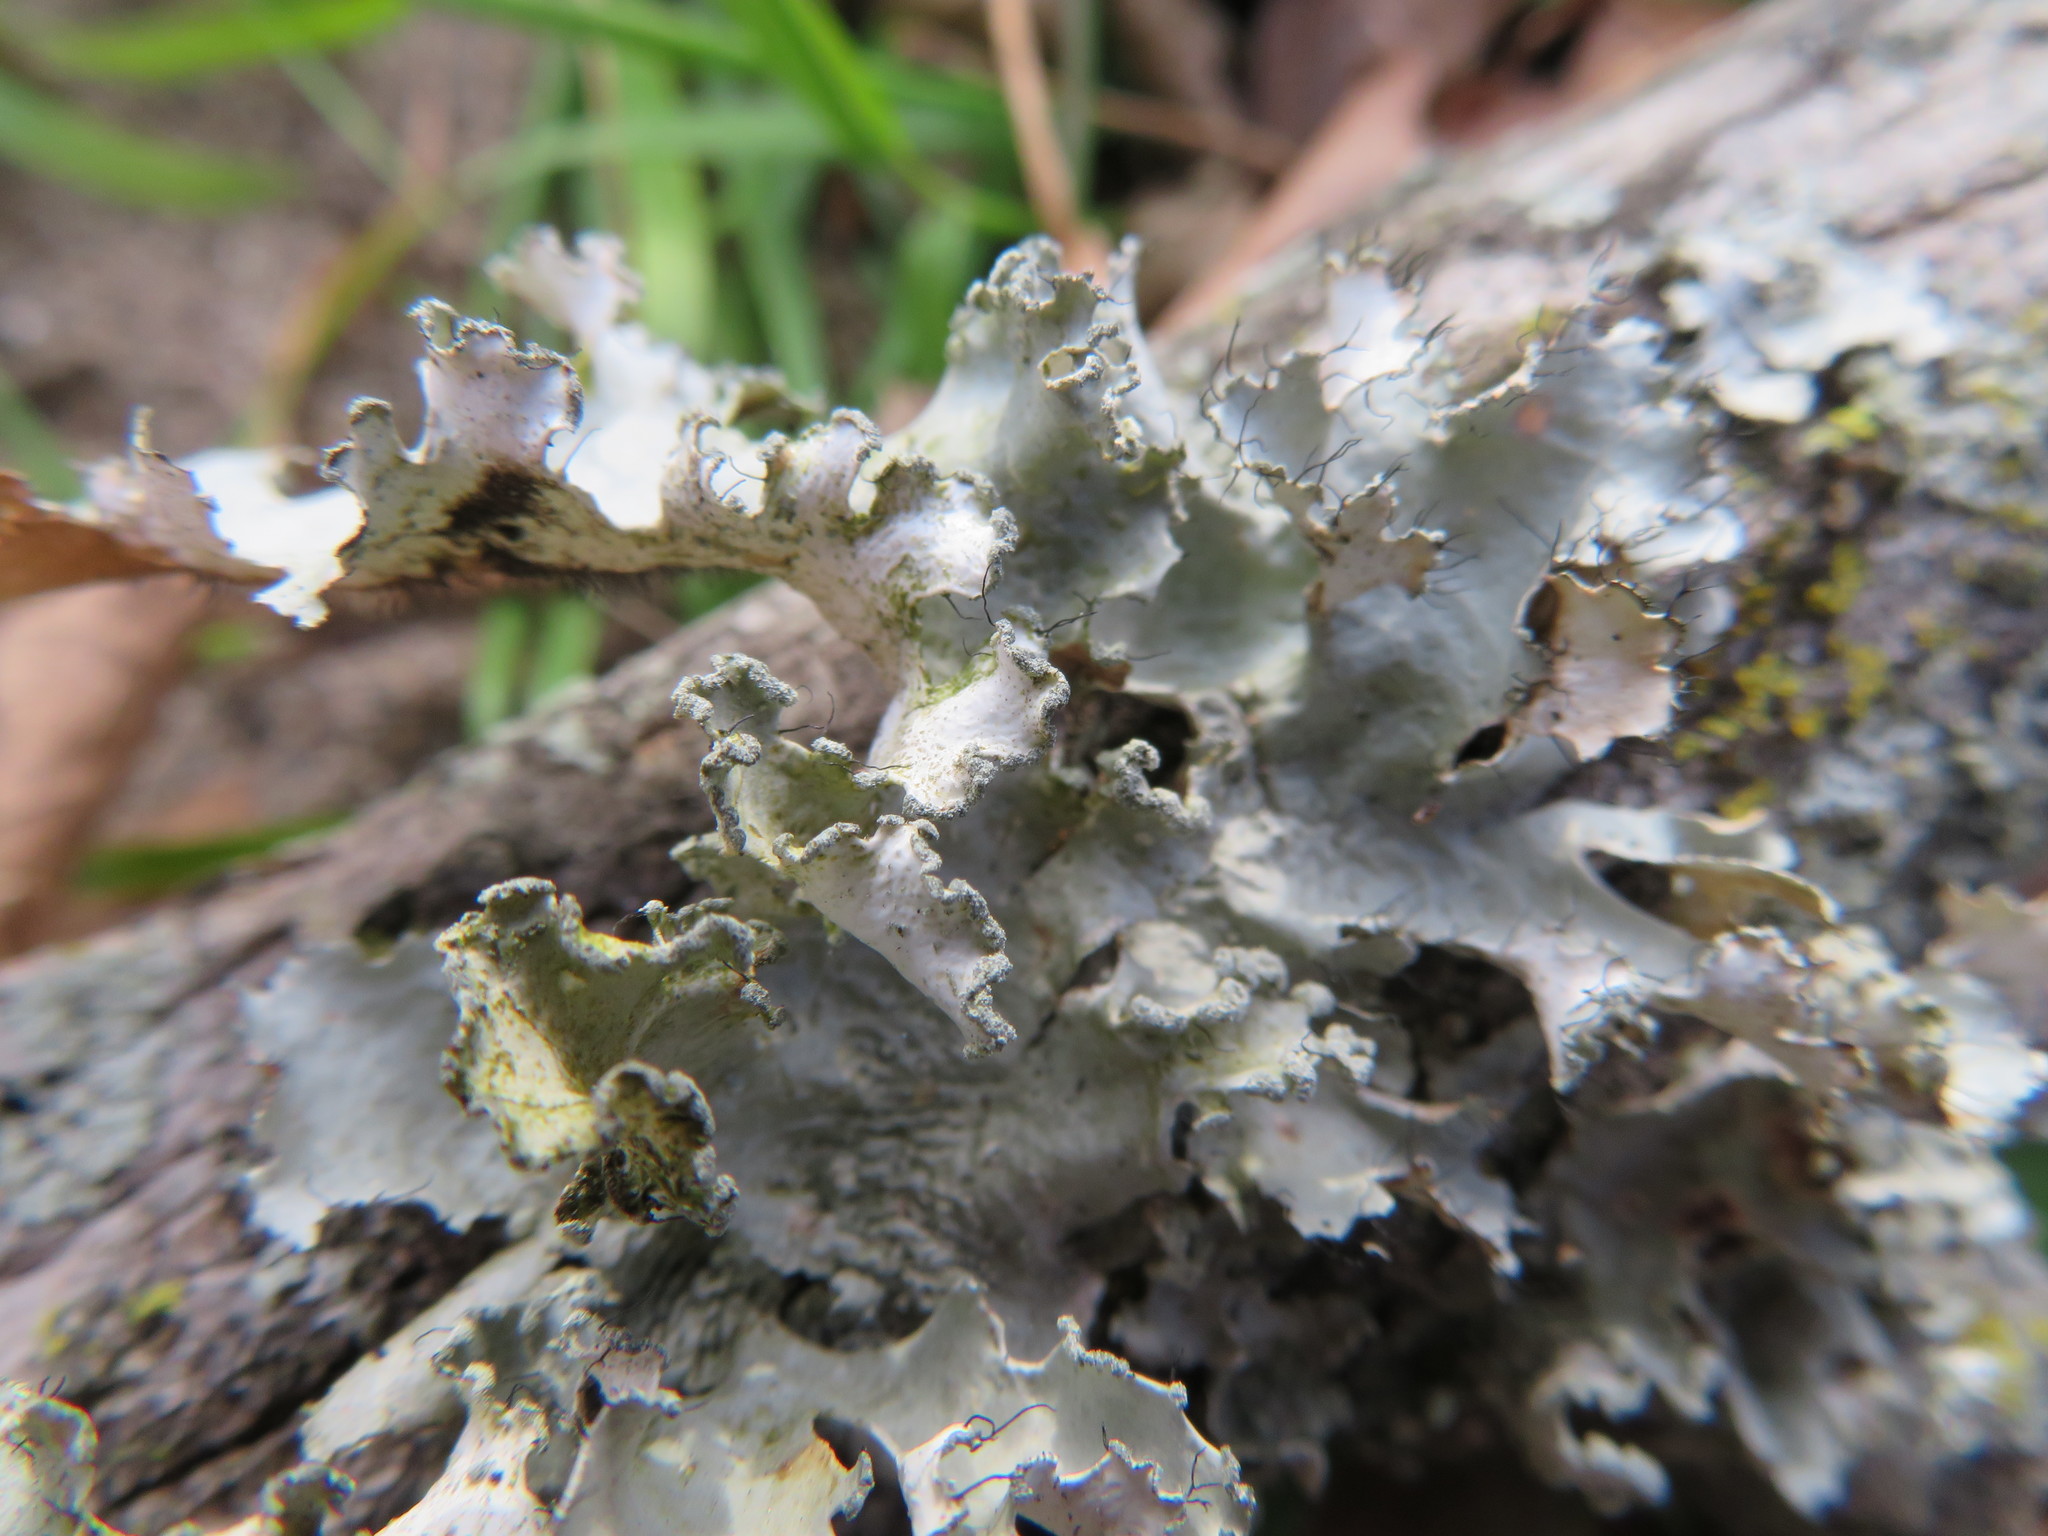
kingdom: Fungi
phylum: Ascomycota
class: Lecanoromycetes
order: Lecanorales
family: Parmeliaceae
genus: Parmotrema
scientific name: Parmotrema hypotropum
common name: Powdered ruffle lichen
